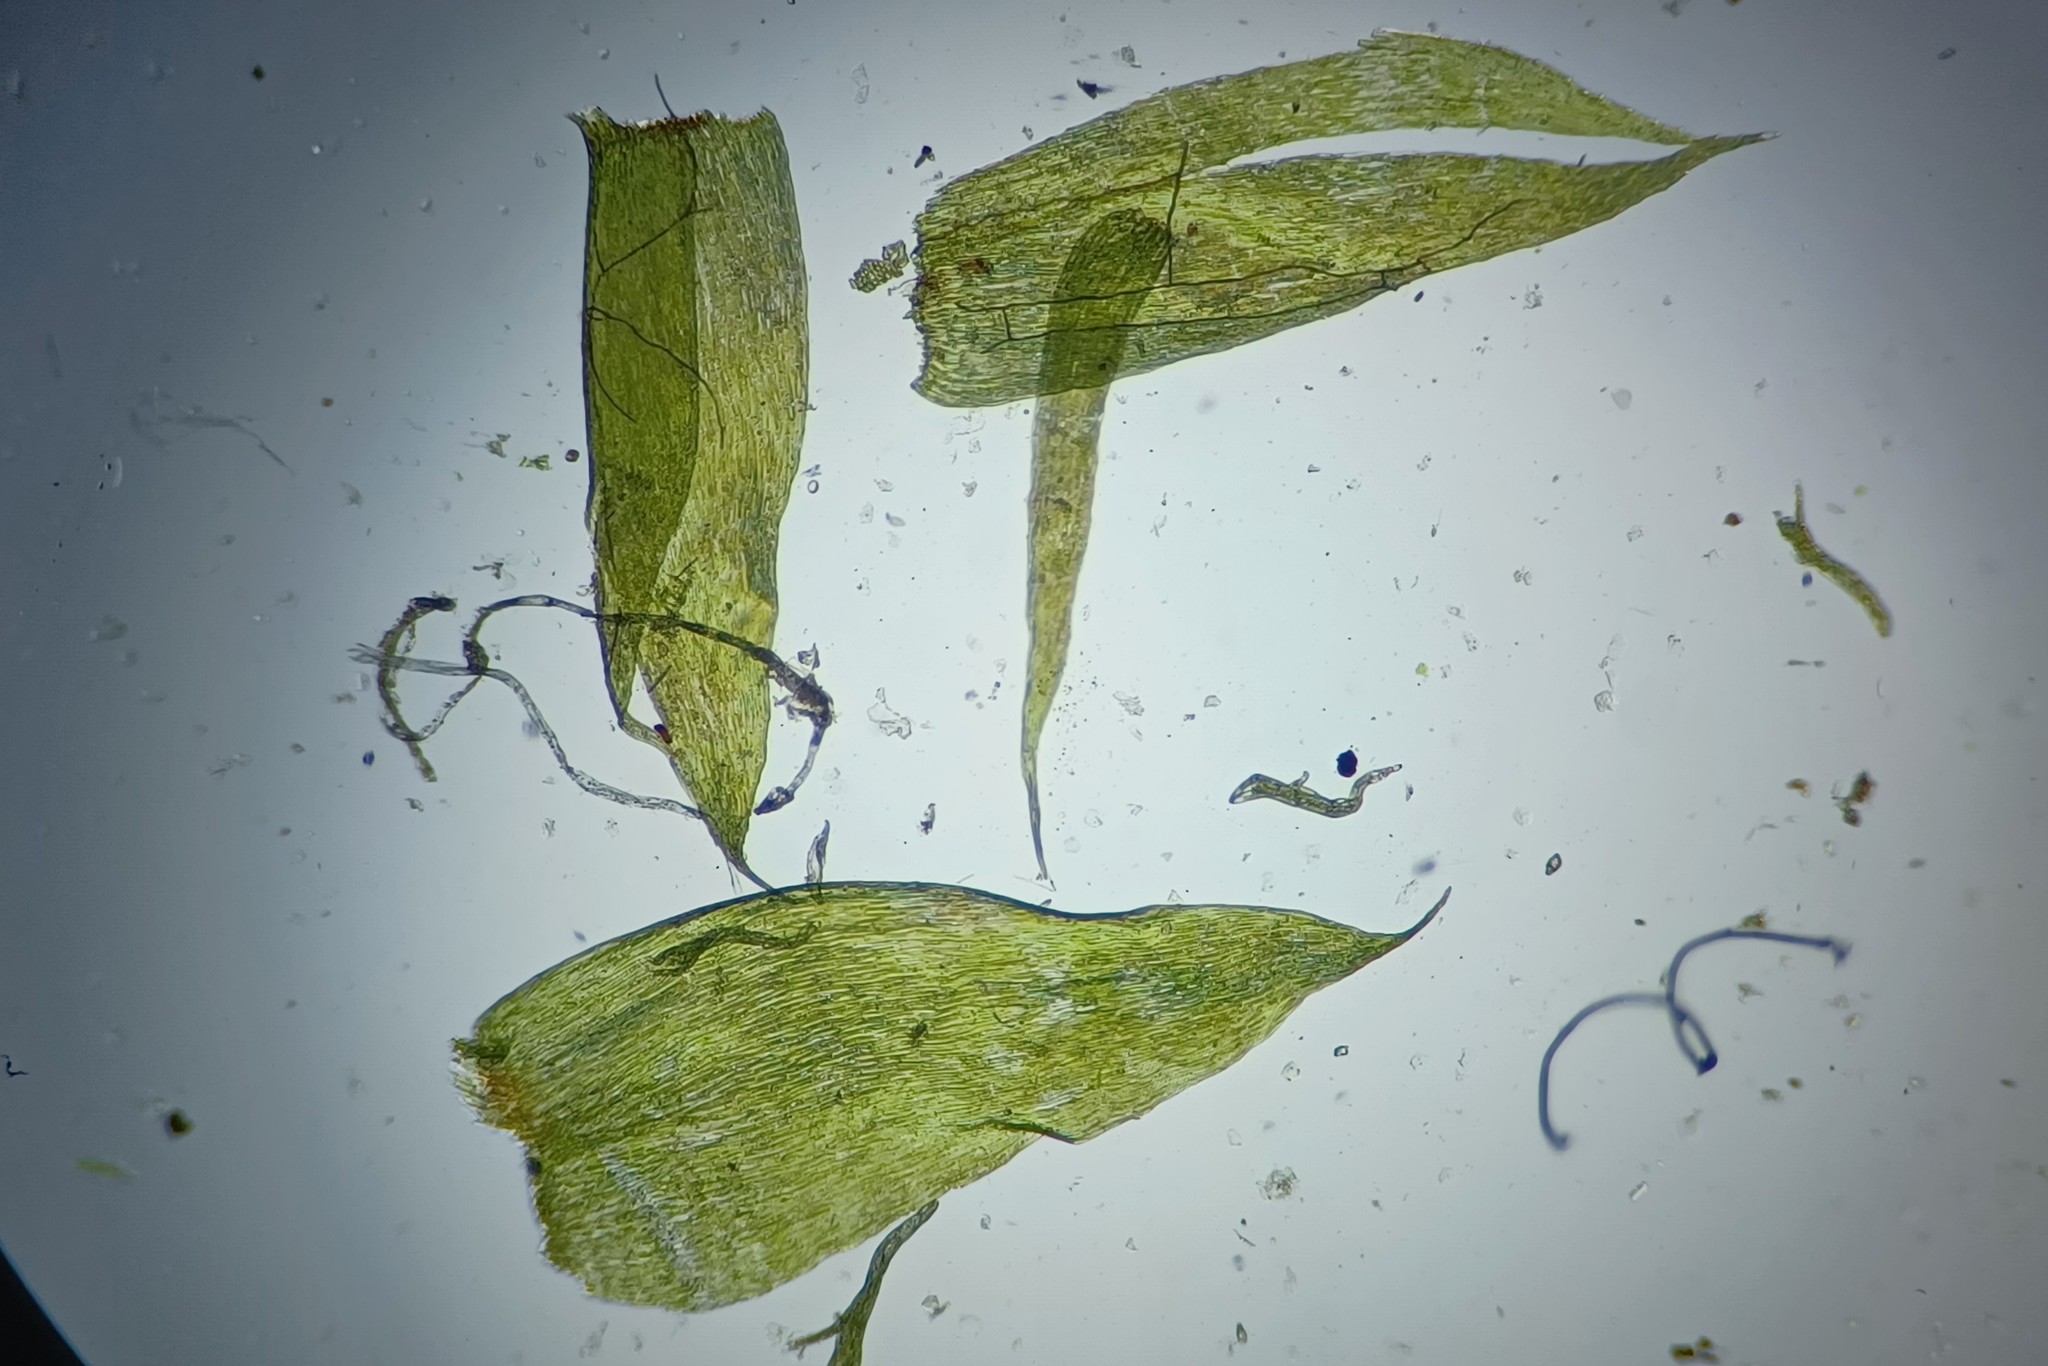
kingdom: Plantae
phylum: Bryophyta
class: Bryopsida
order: Hypnales
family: Neckeraceae
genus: Longiella
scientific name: Longiella distichacea
